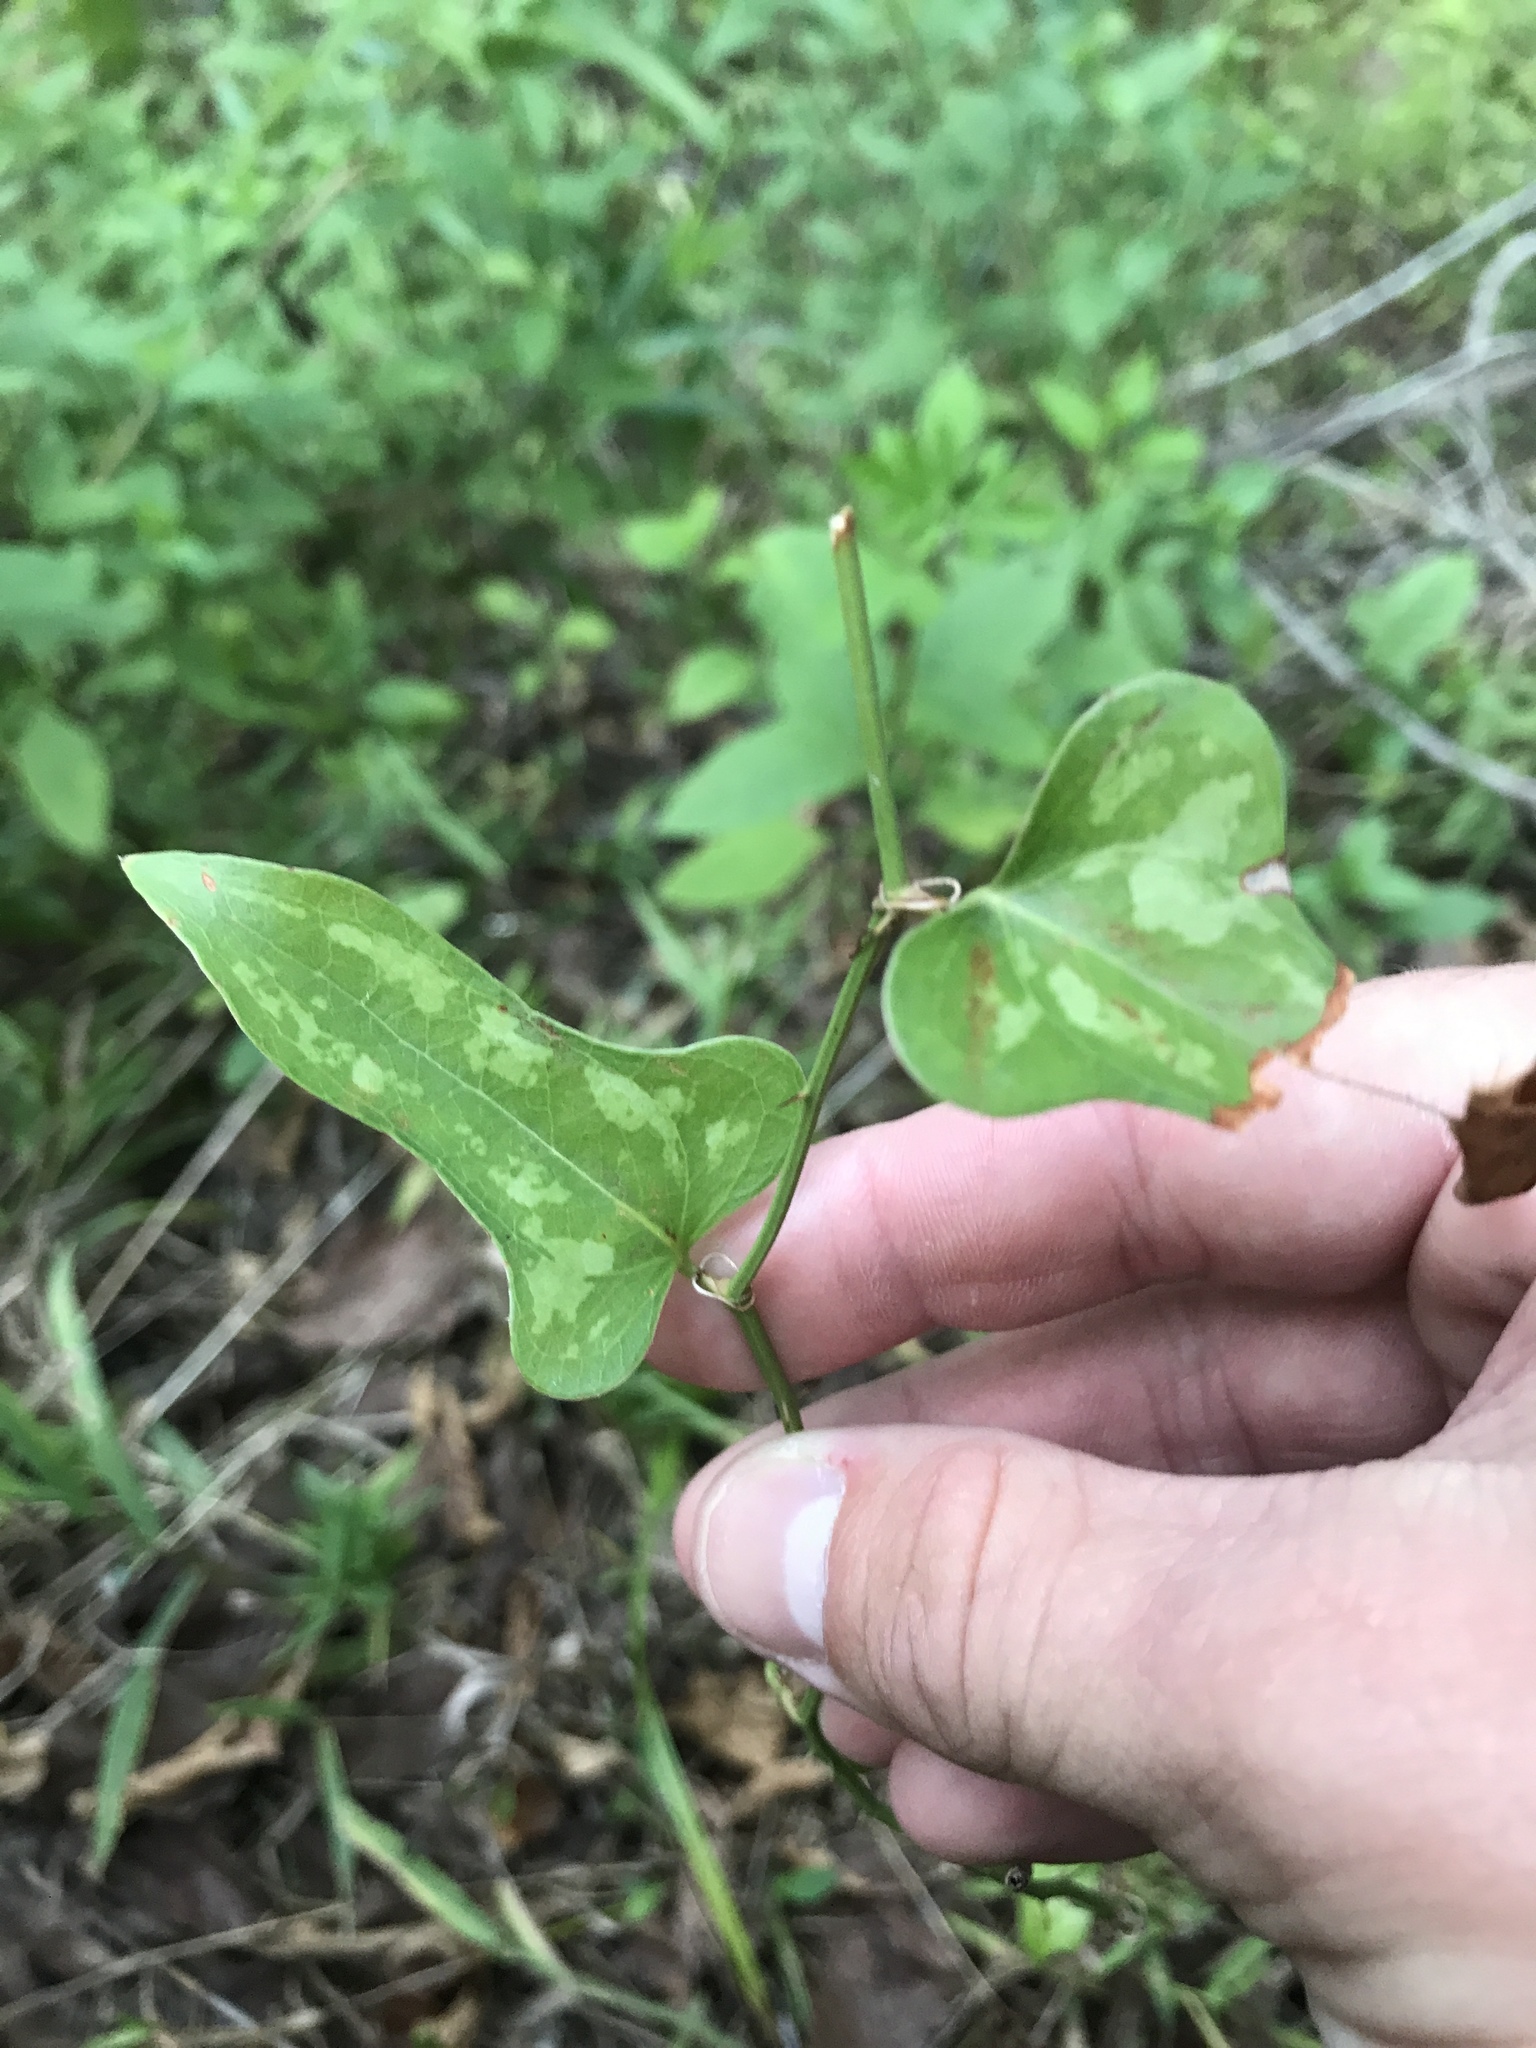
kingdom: Plantae
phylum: Tracheophyta
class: Liliopsida
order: Liliales
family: Smilacaceae
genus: Smilax
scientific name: Smilax bona-nox
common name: Catbrier
